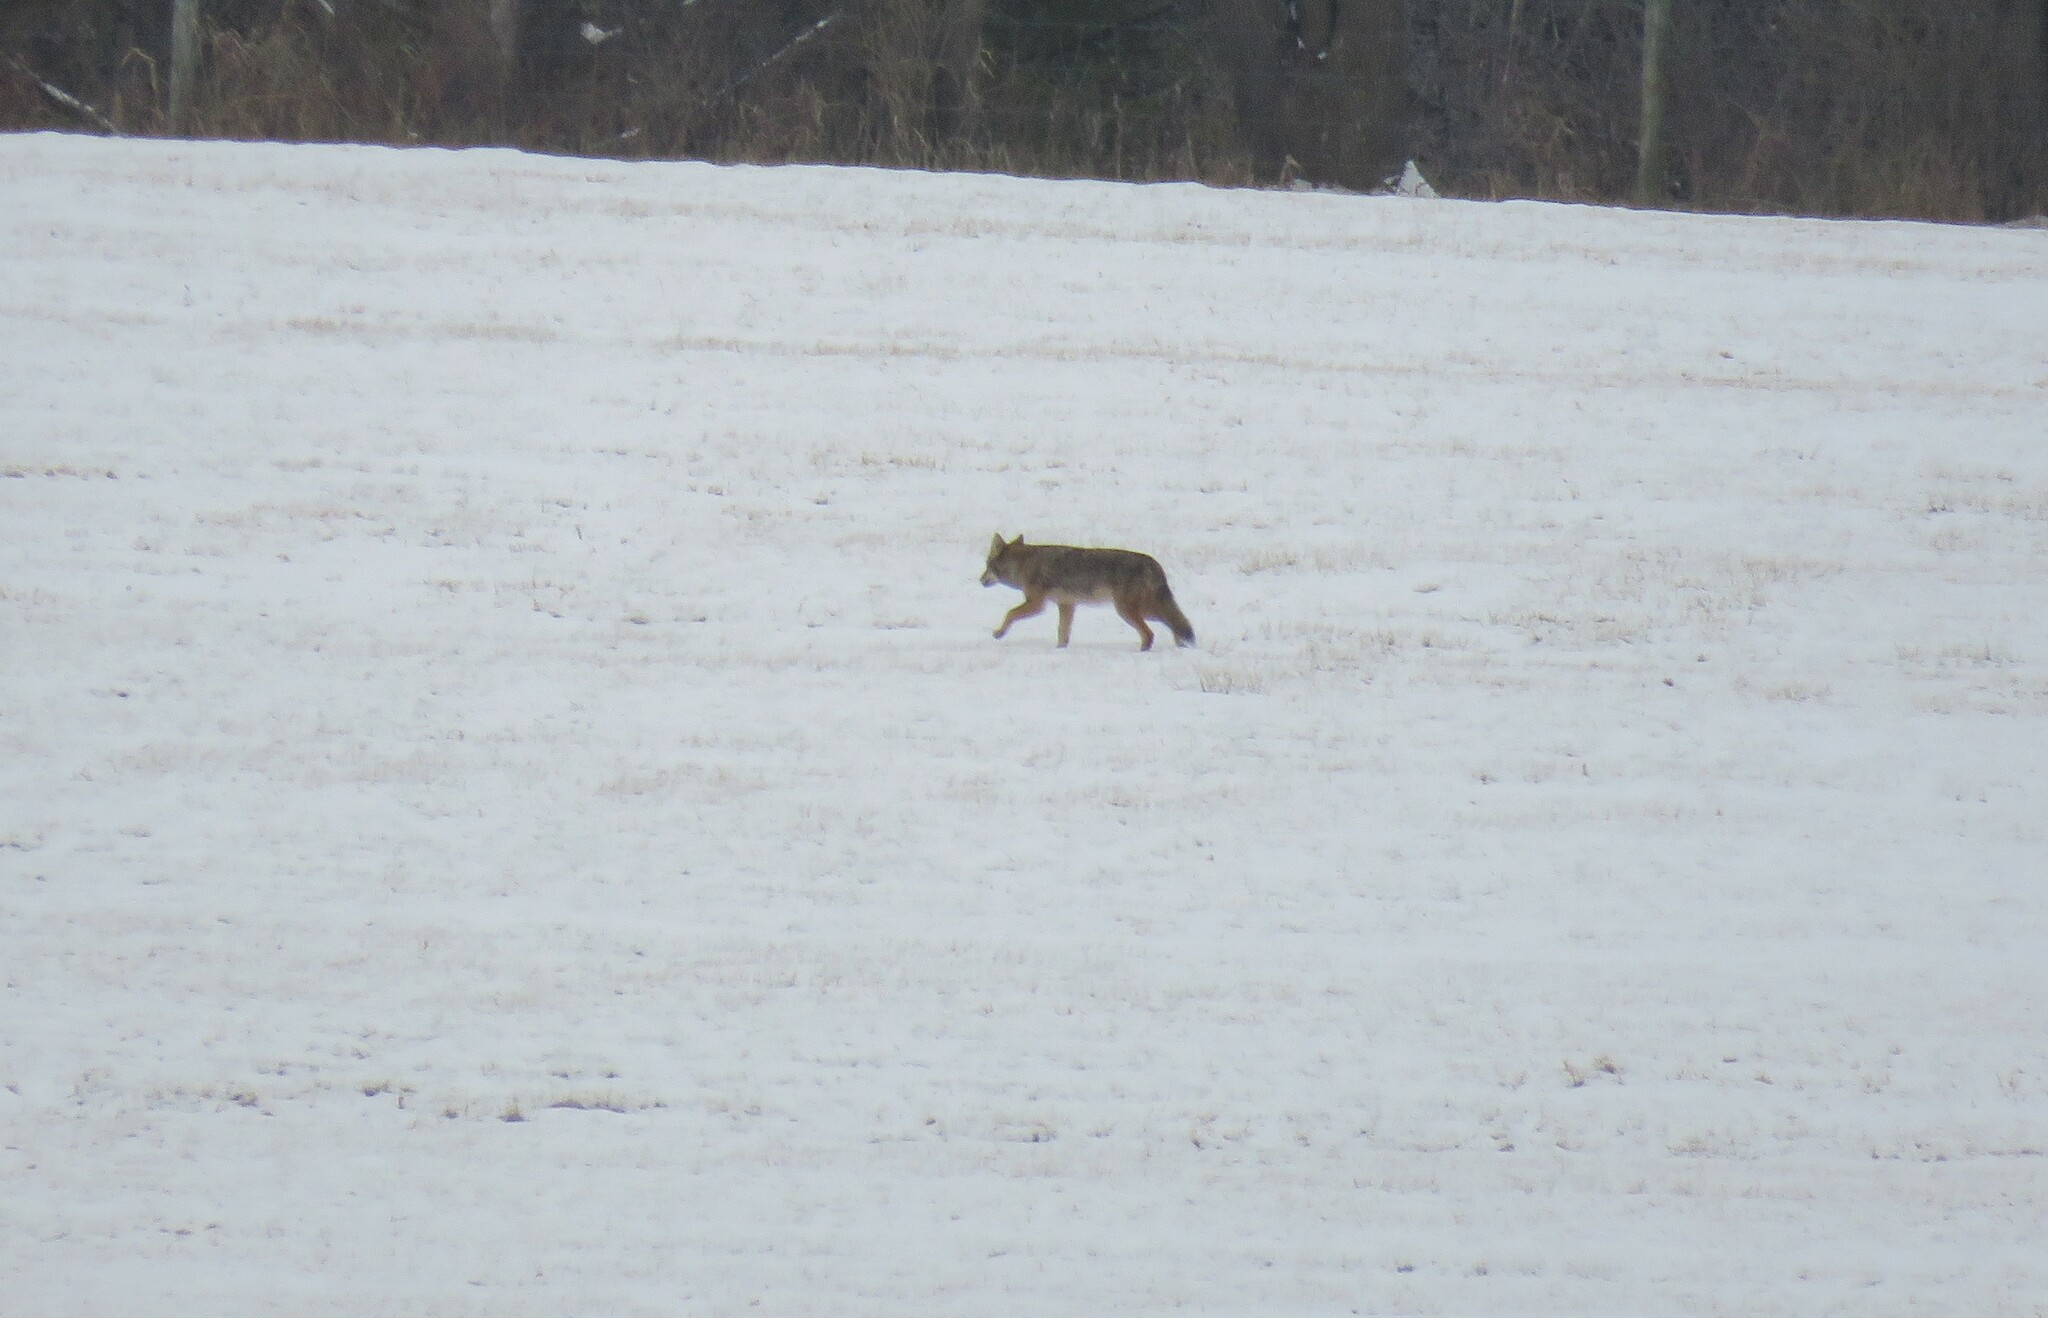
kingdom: Animalia
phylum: Chordata
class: Mammalia
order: Carnivora
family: Canidae
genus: Canis
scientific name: Canis latrans
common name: Coyote
